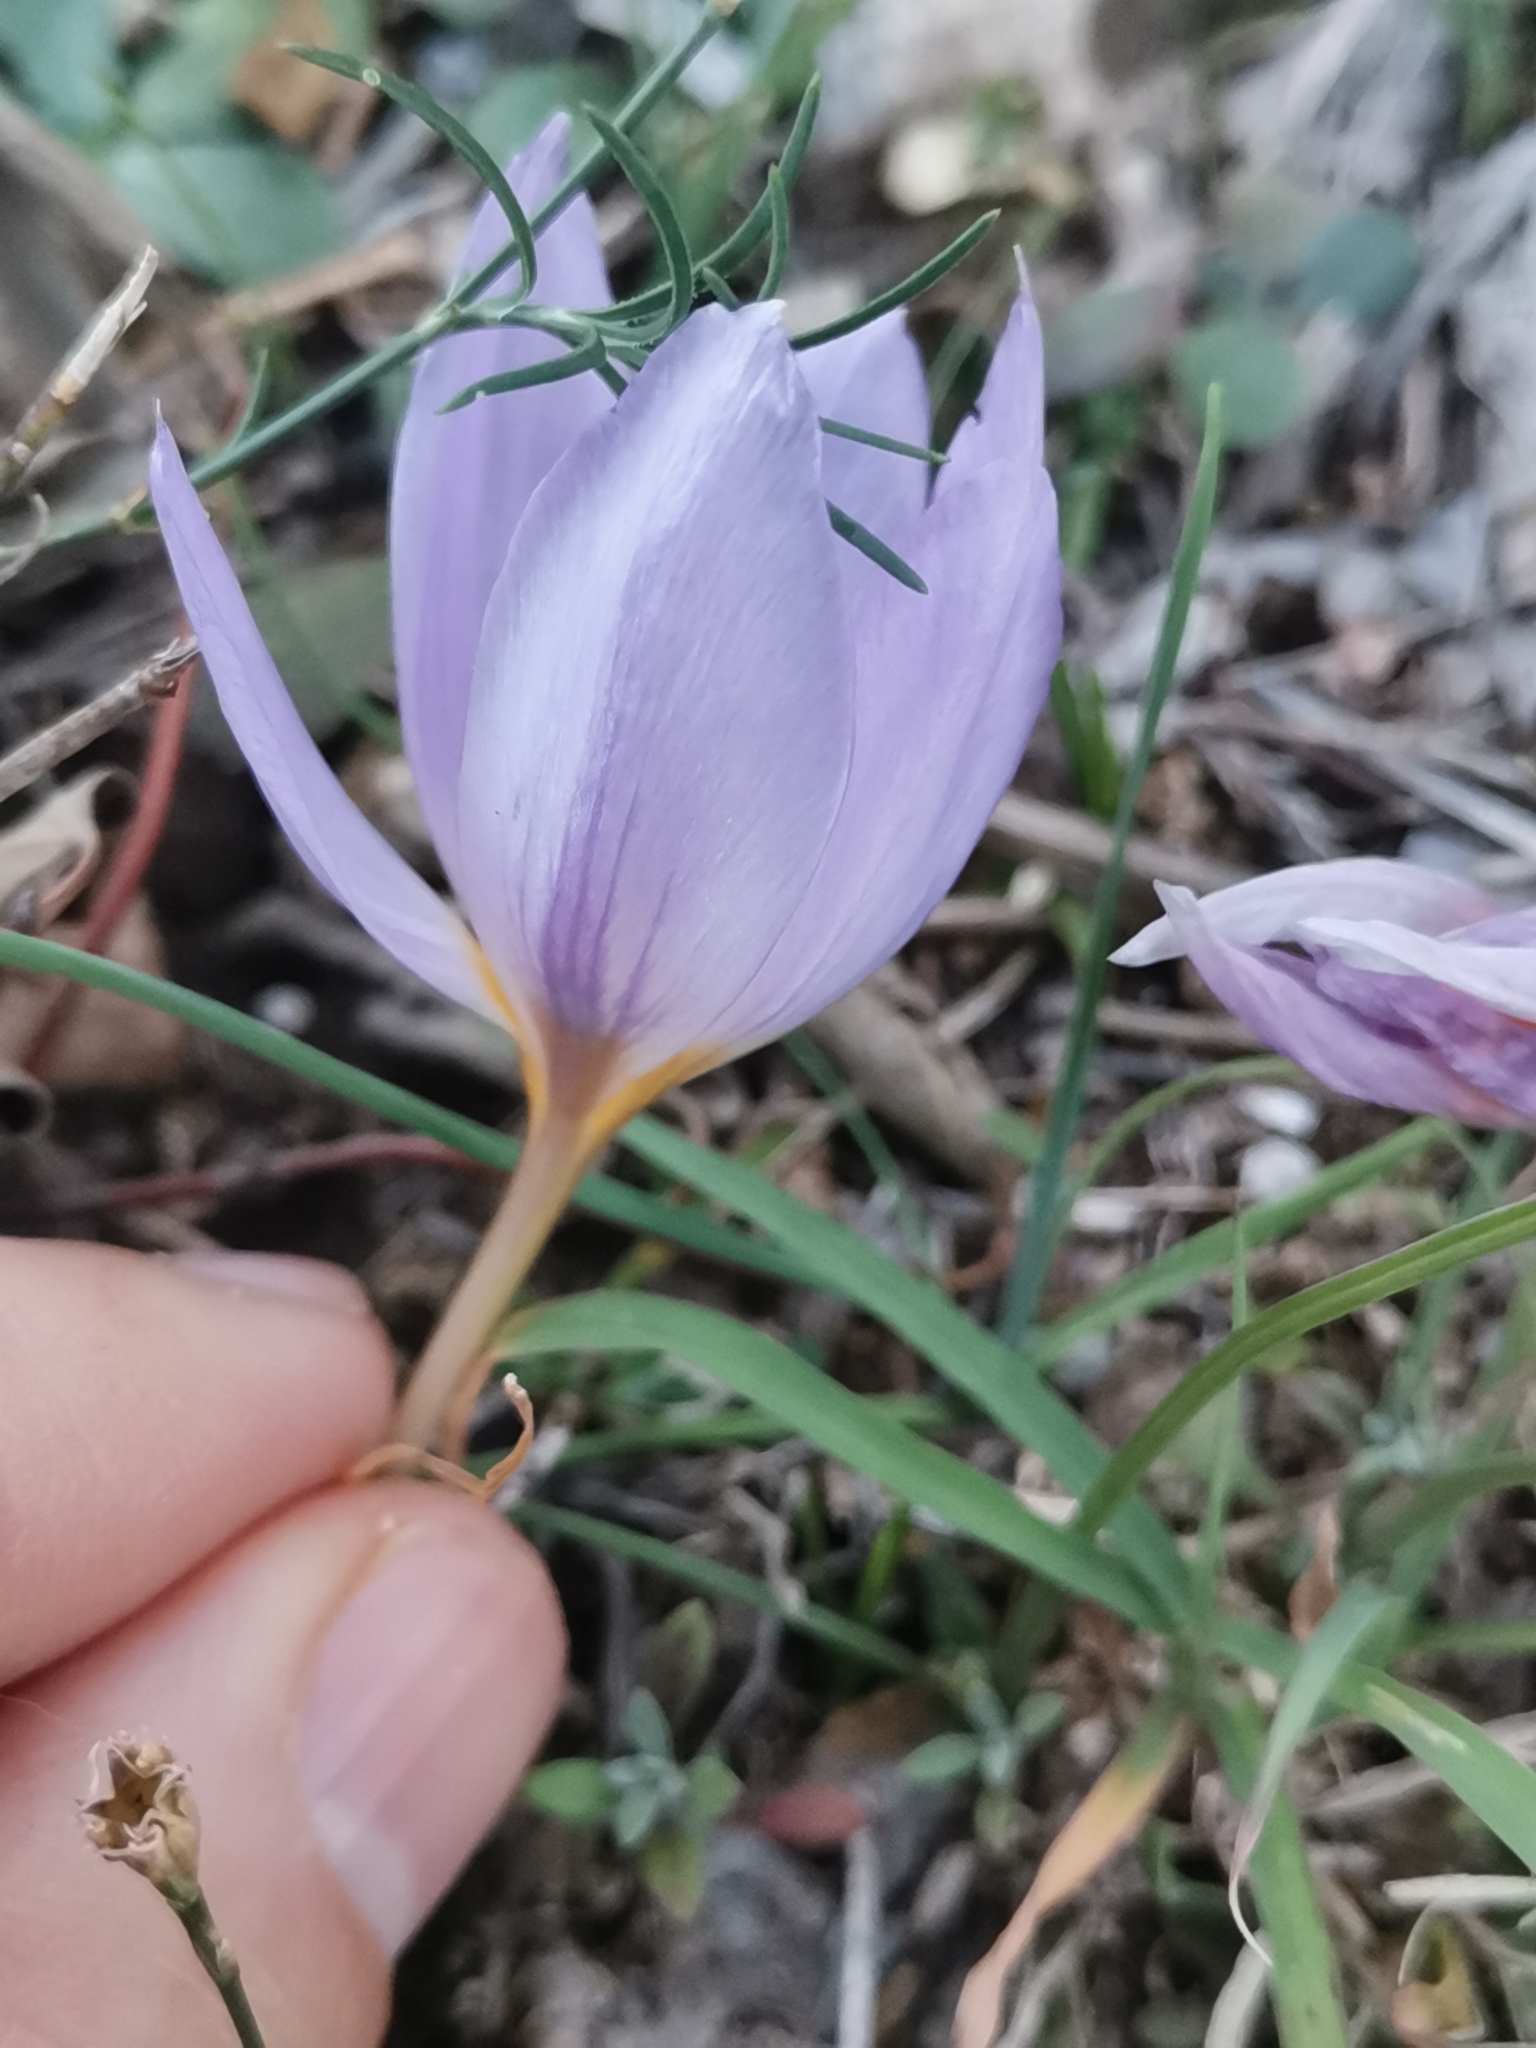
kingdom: Plantae
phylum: Tracheophyta
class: Liliopsida
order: Asparagales
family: Iridaceae
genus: Crocus
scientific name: Crocus thomasii
